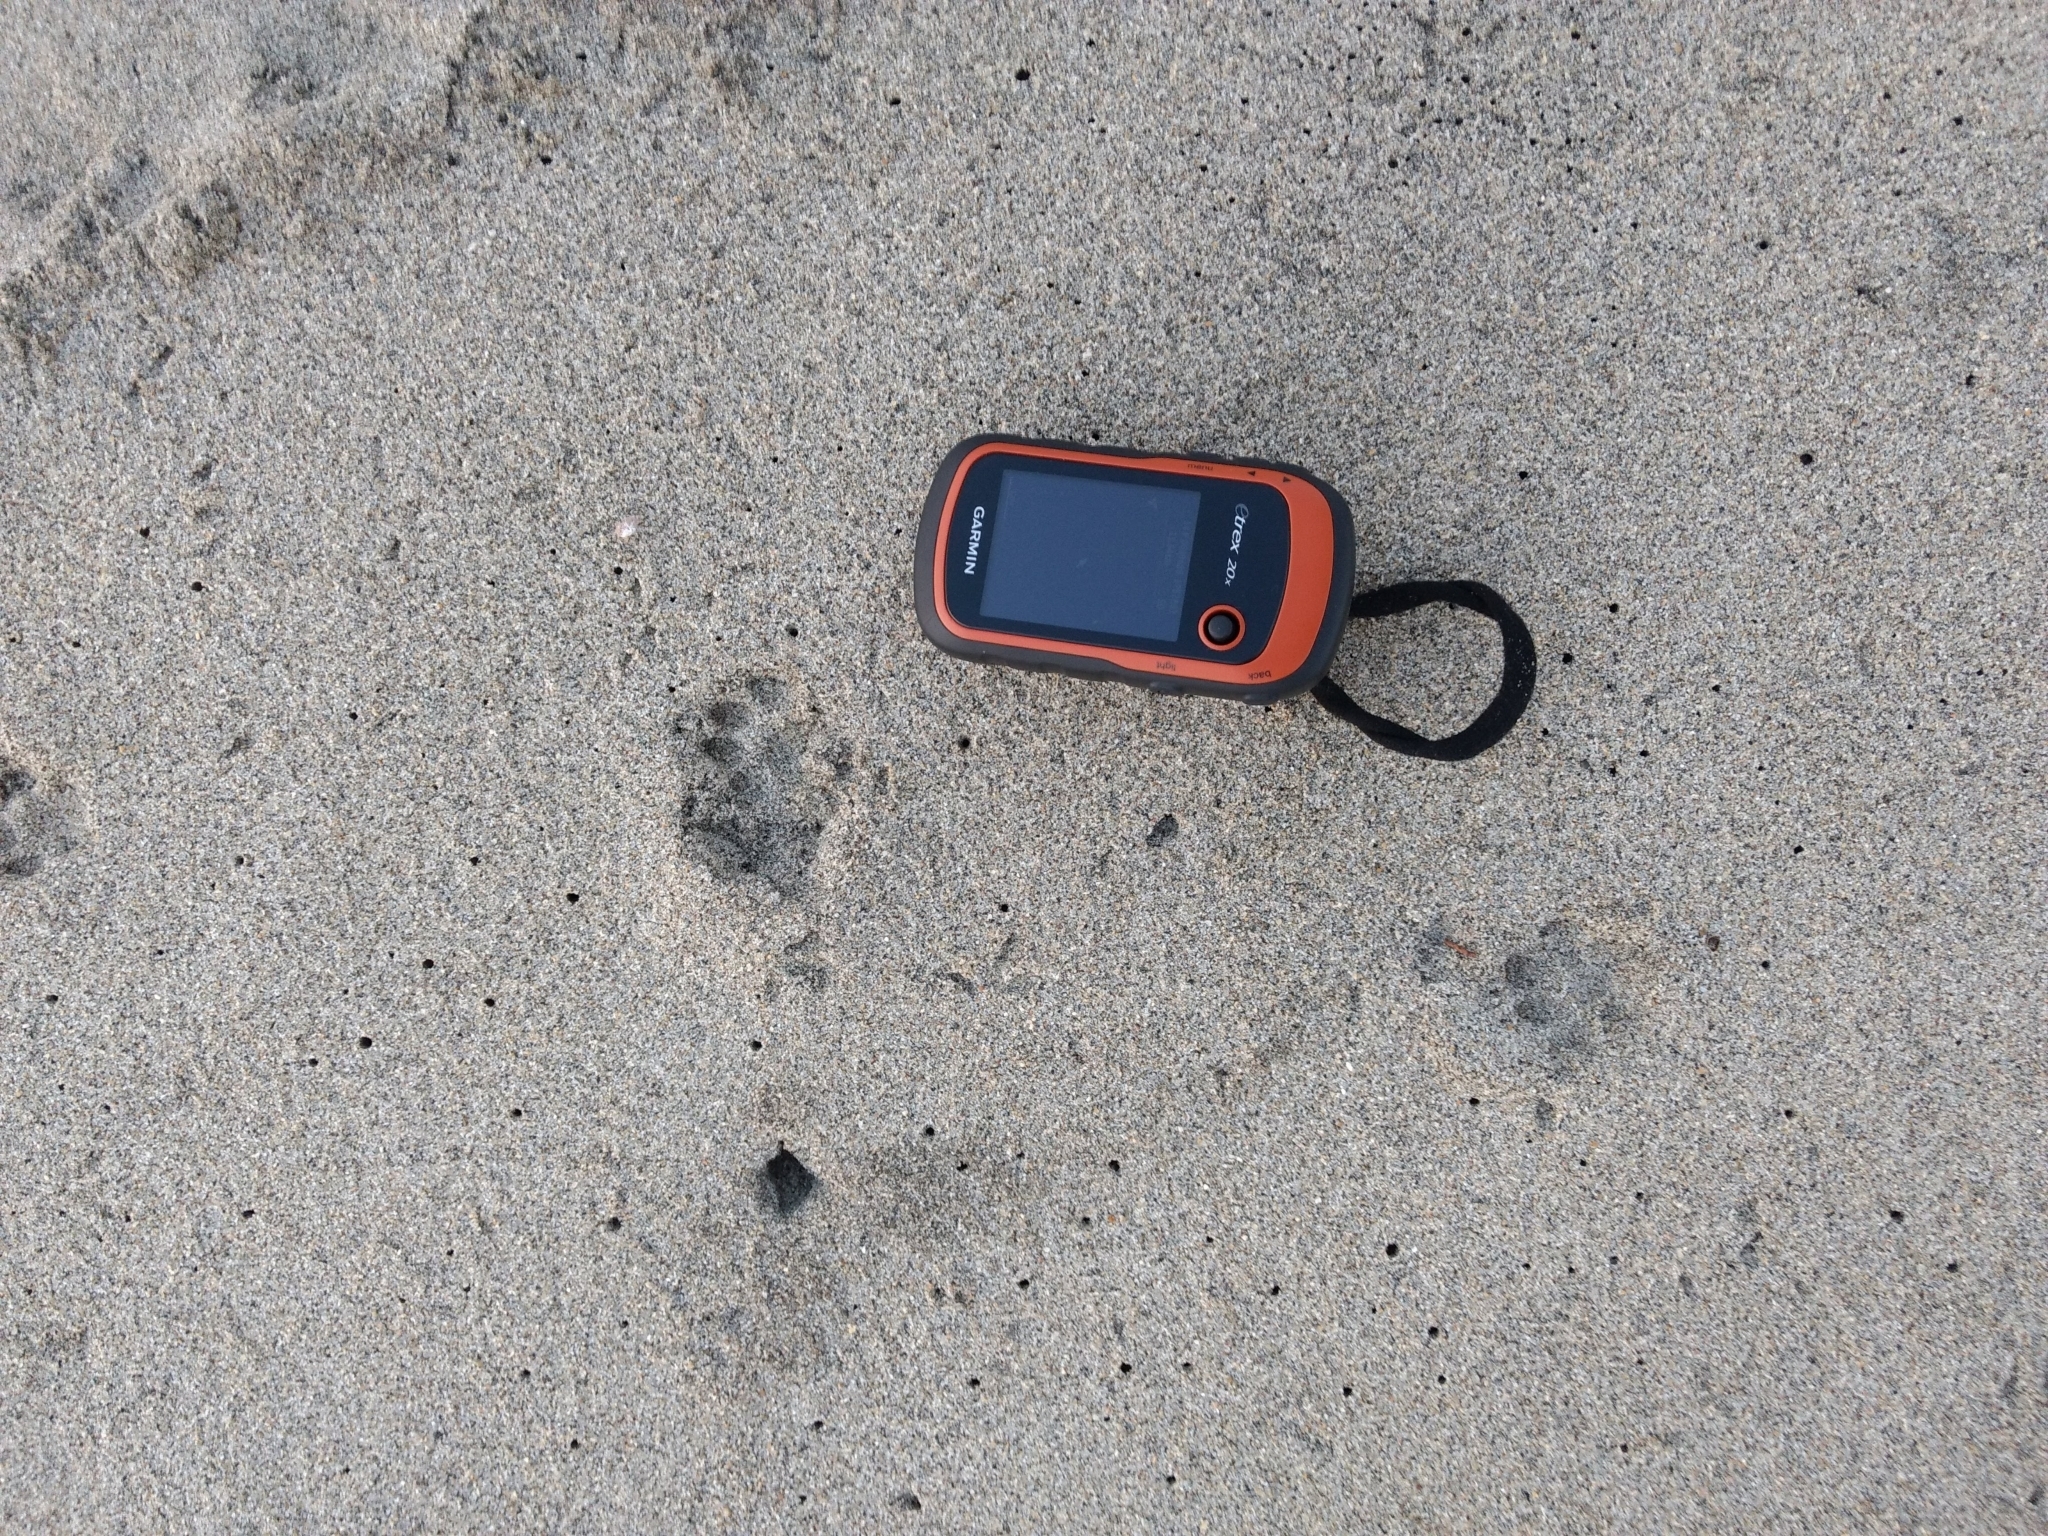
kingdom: Animalia
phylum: Chordata
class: Mammalia
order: Carnivora
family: Felidae
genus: Felis
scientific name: Felis catus
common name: Domestic cat
